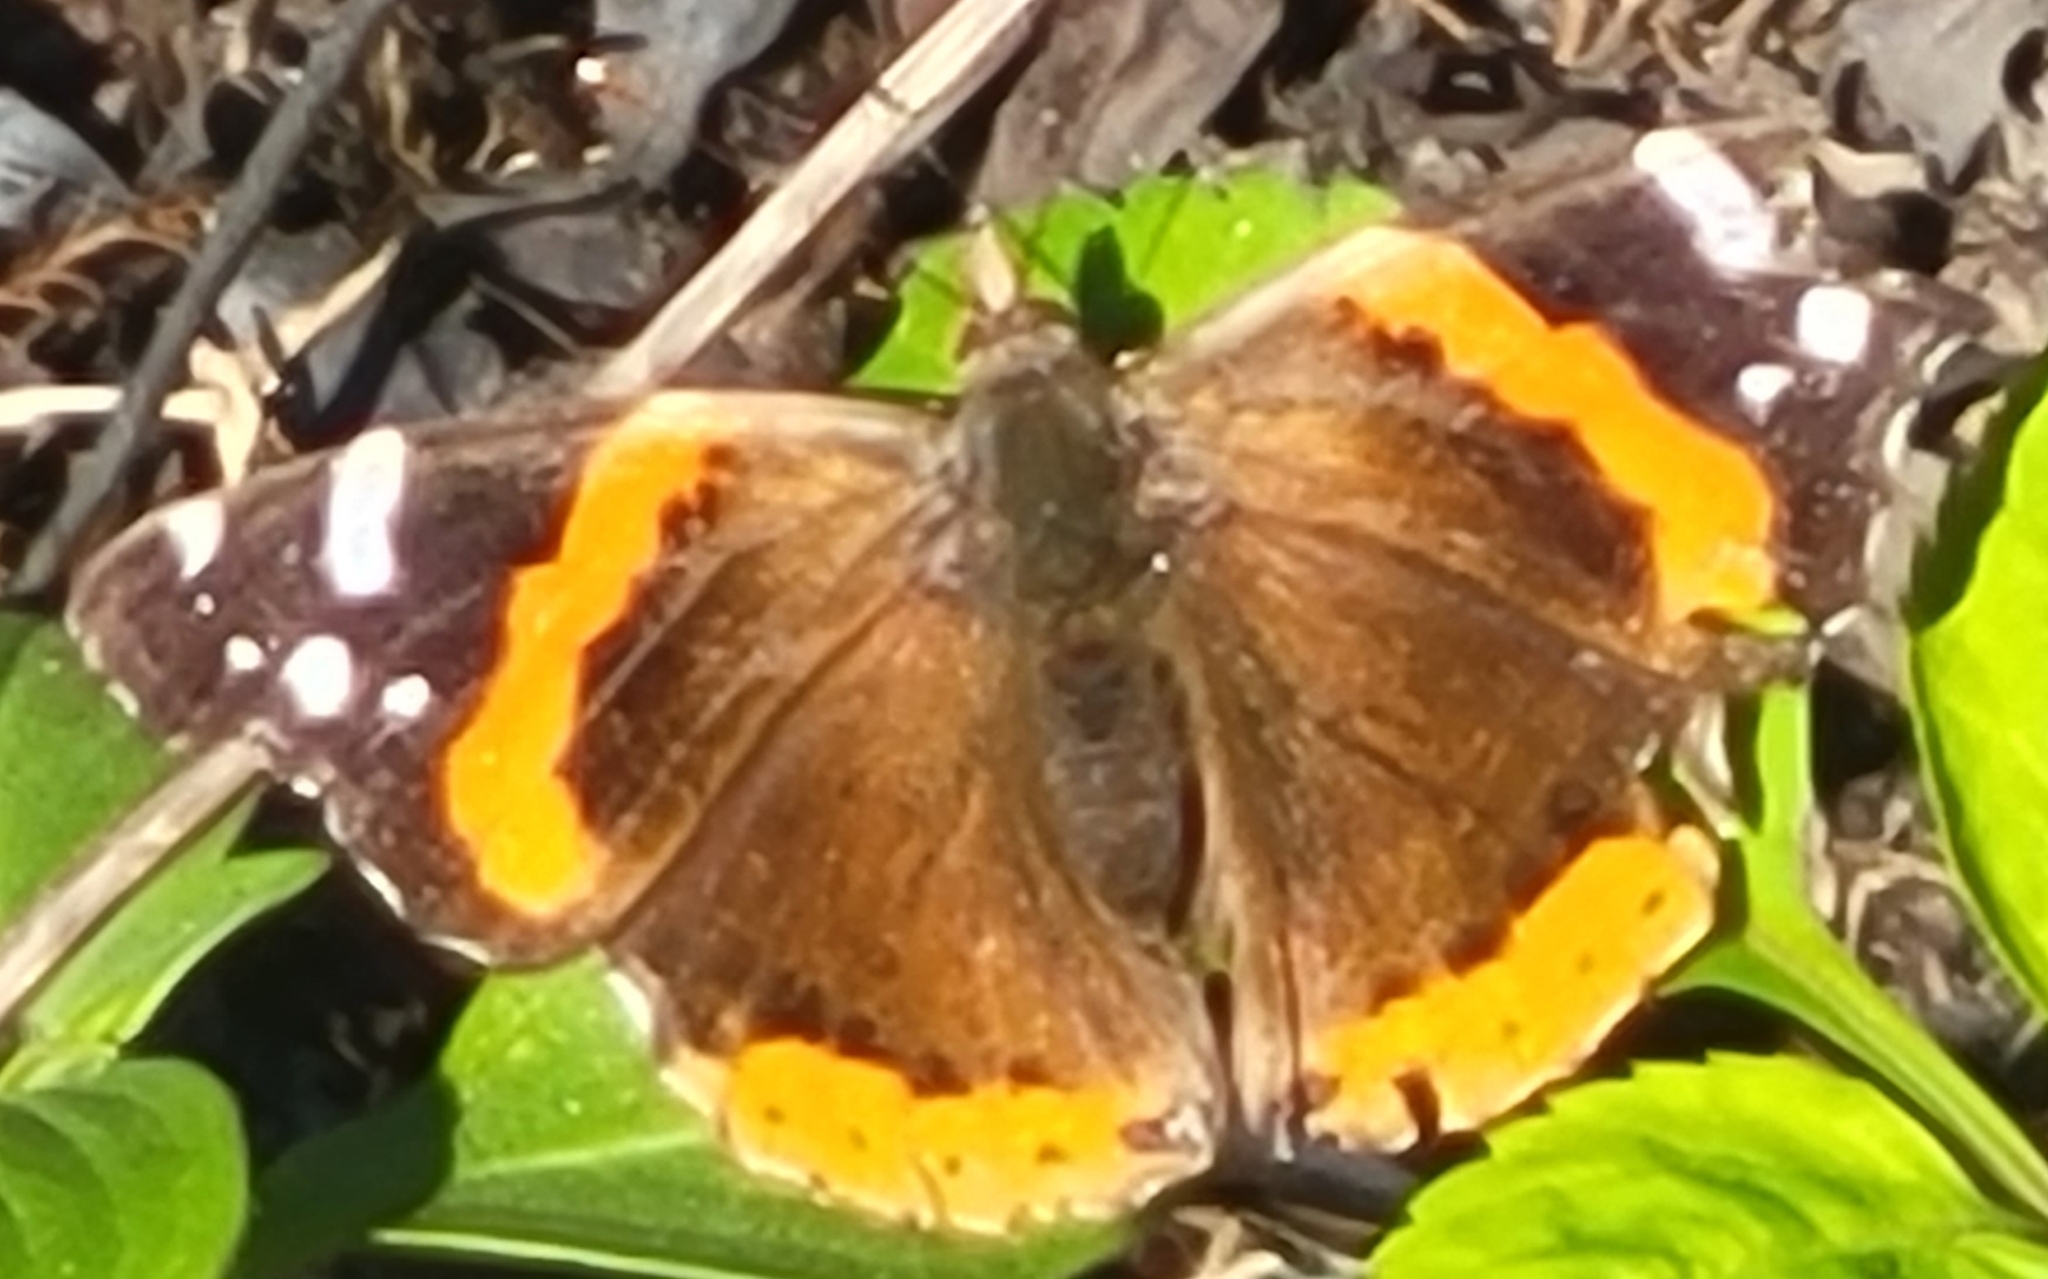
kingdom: Animalia
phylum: Arthropoda
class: Insecta
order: Lepidoptera
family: Nymphalidae
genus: Vanessa
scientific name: Vanessa atalanta
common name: Red admiral
